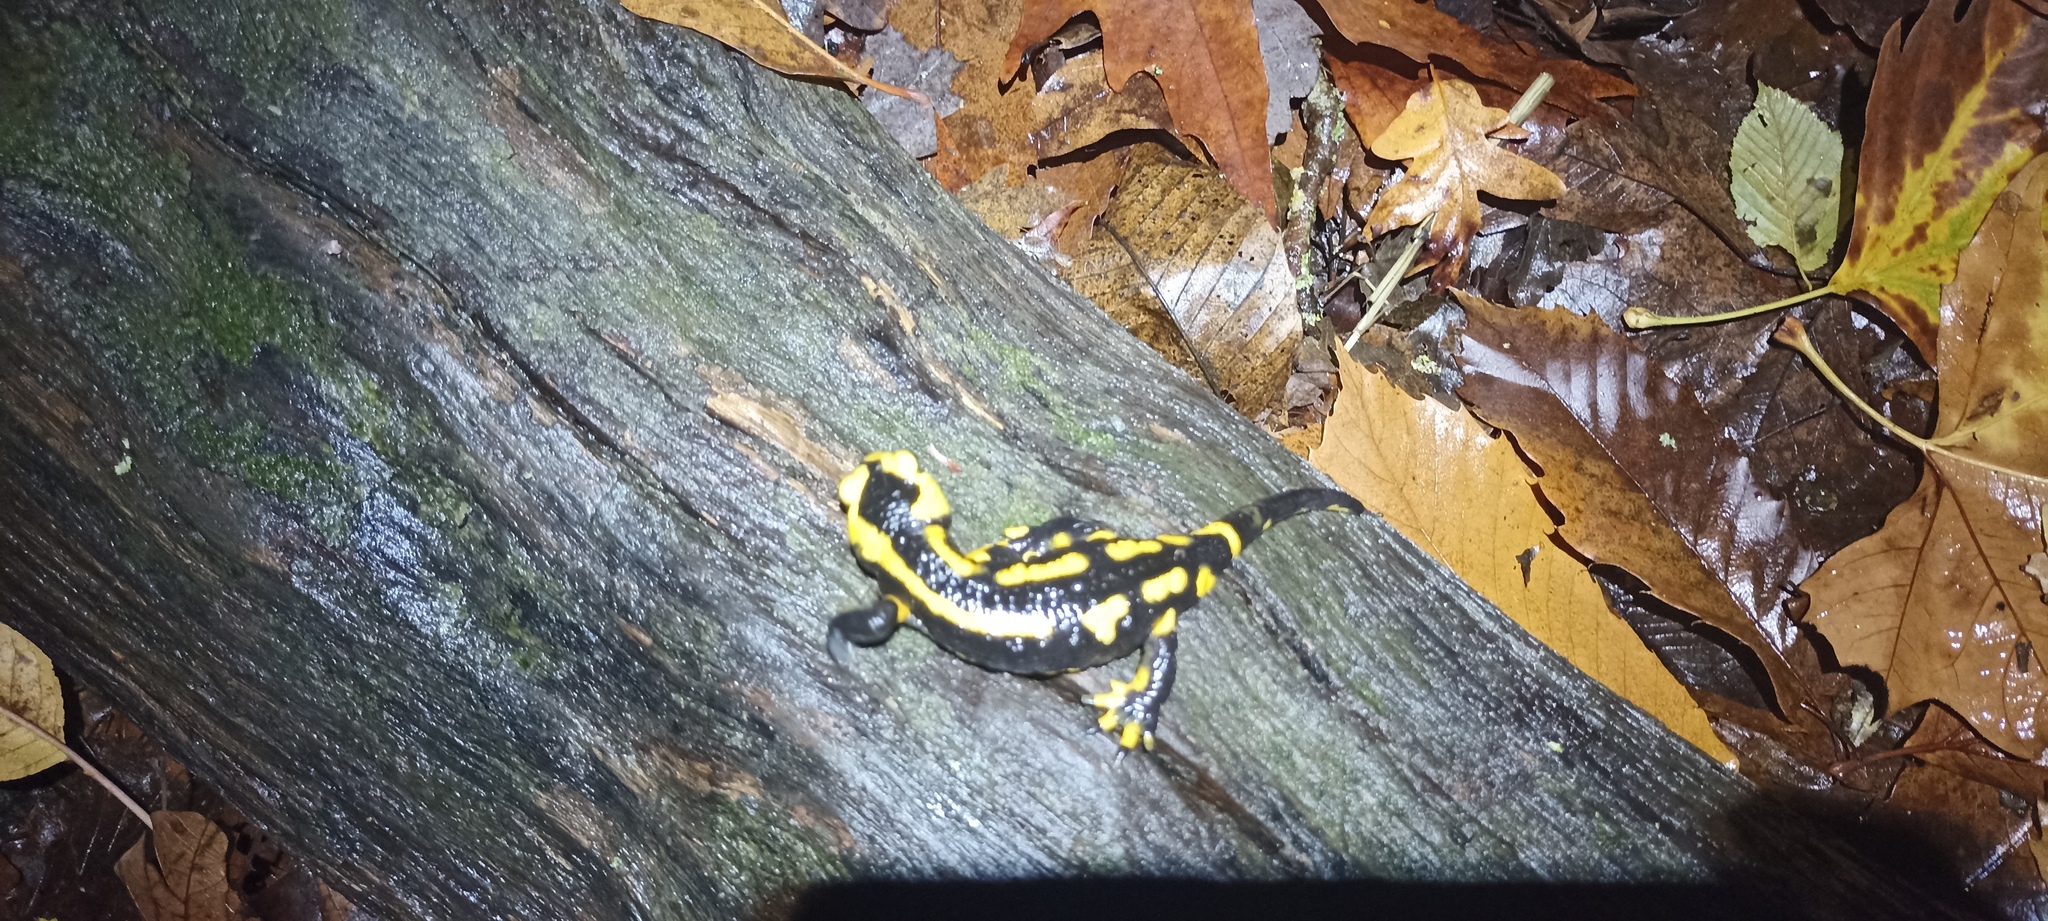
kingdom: Animalia
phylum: Chordata
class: Amphibia
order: Caudata
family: Salamandridae
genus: Salamandra
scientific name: Salamandra salamandra
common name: Fire salamander
